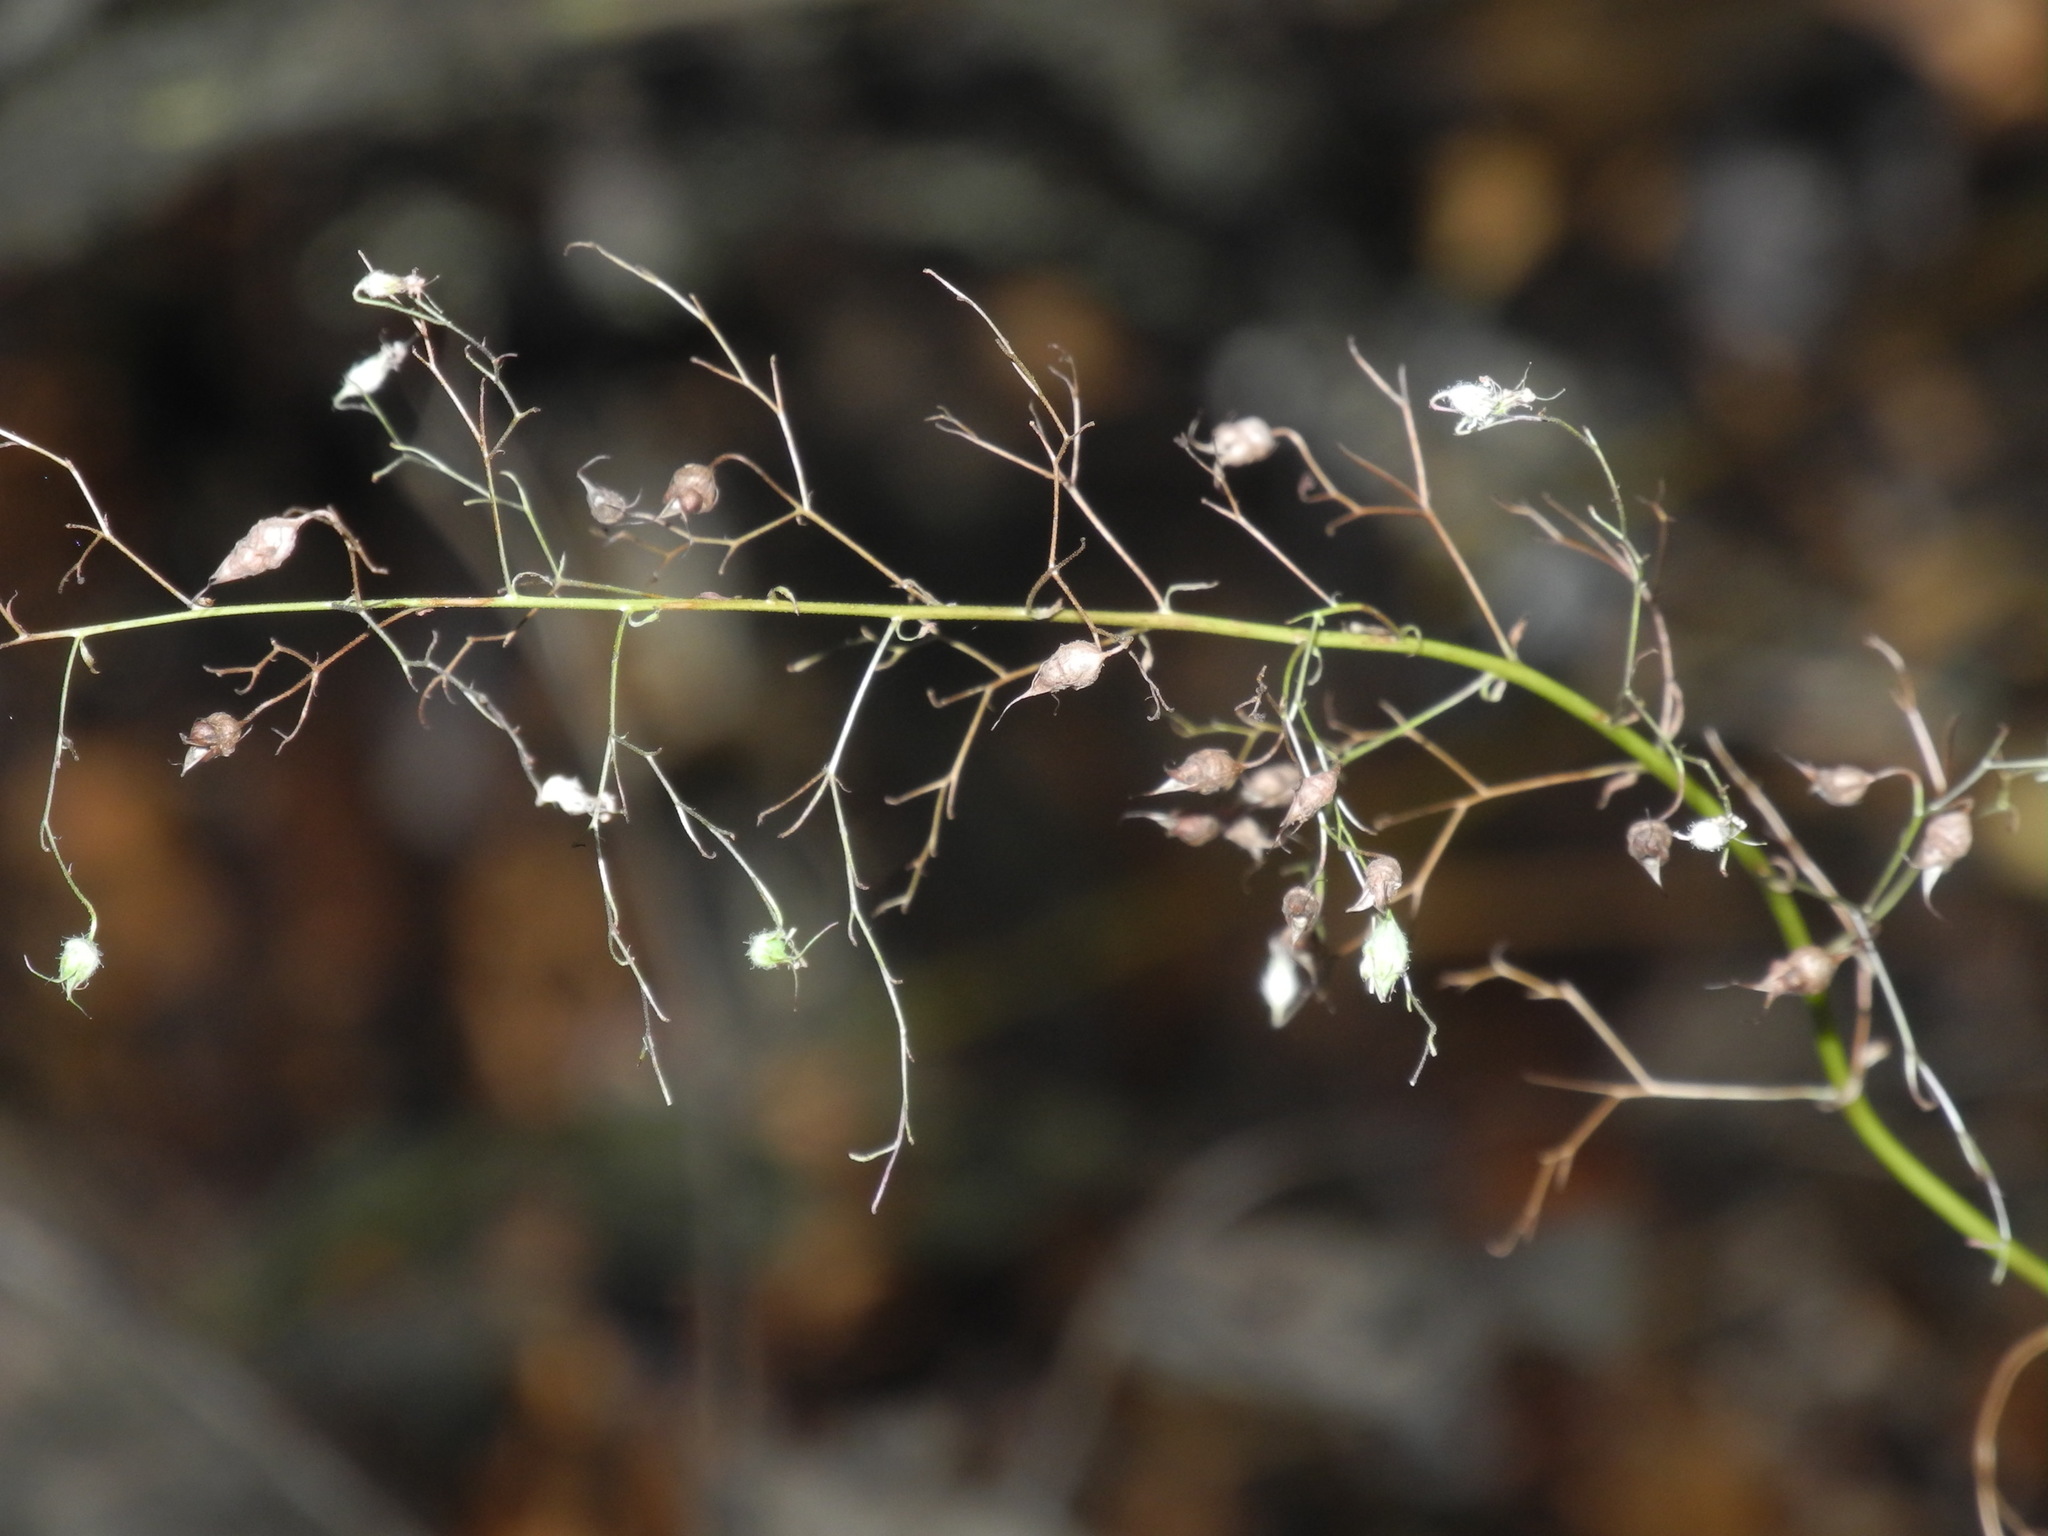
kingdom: Plantae
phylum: Tracheophyta
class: Magnoliopsida
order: Saxifragales
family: Saxifragaceae
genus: Heuchera
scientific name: Heuchera villosa
